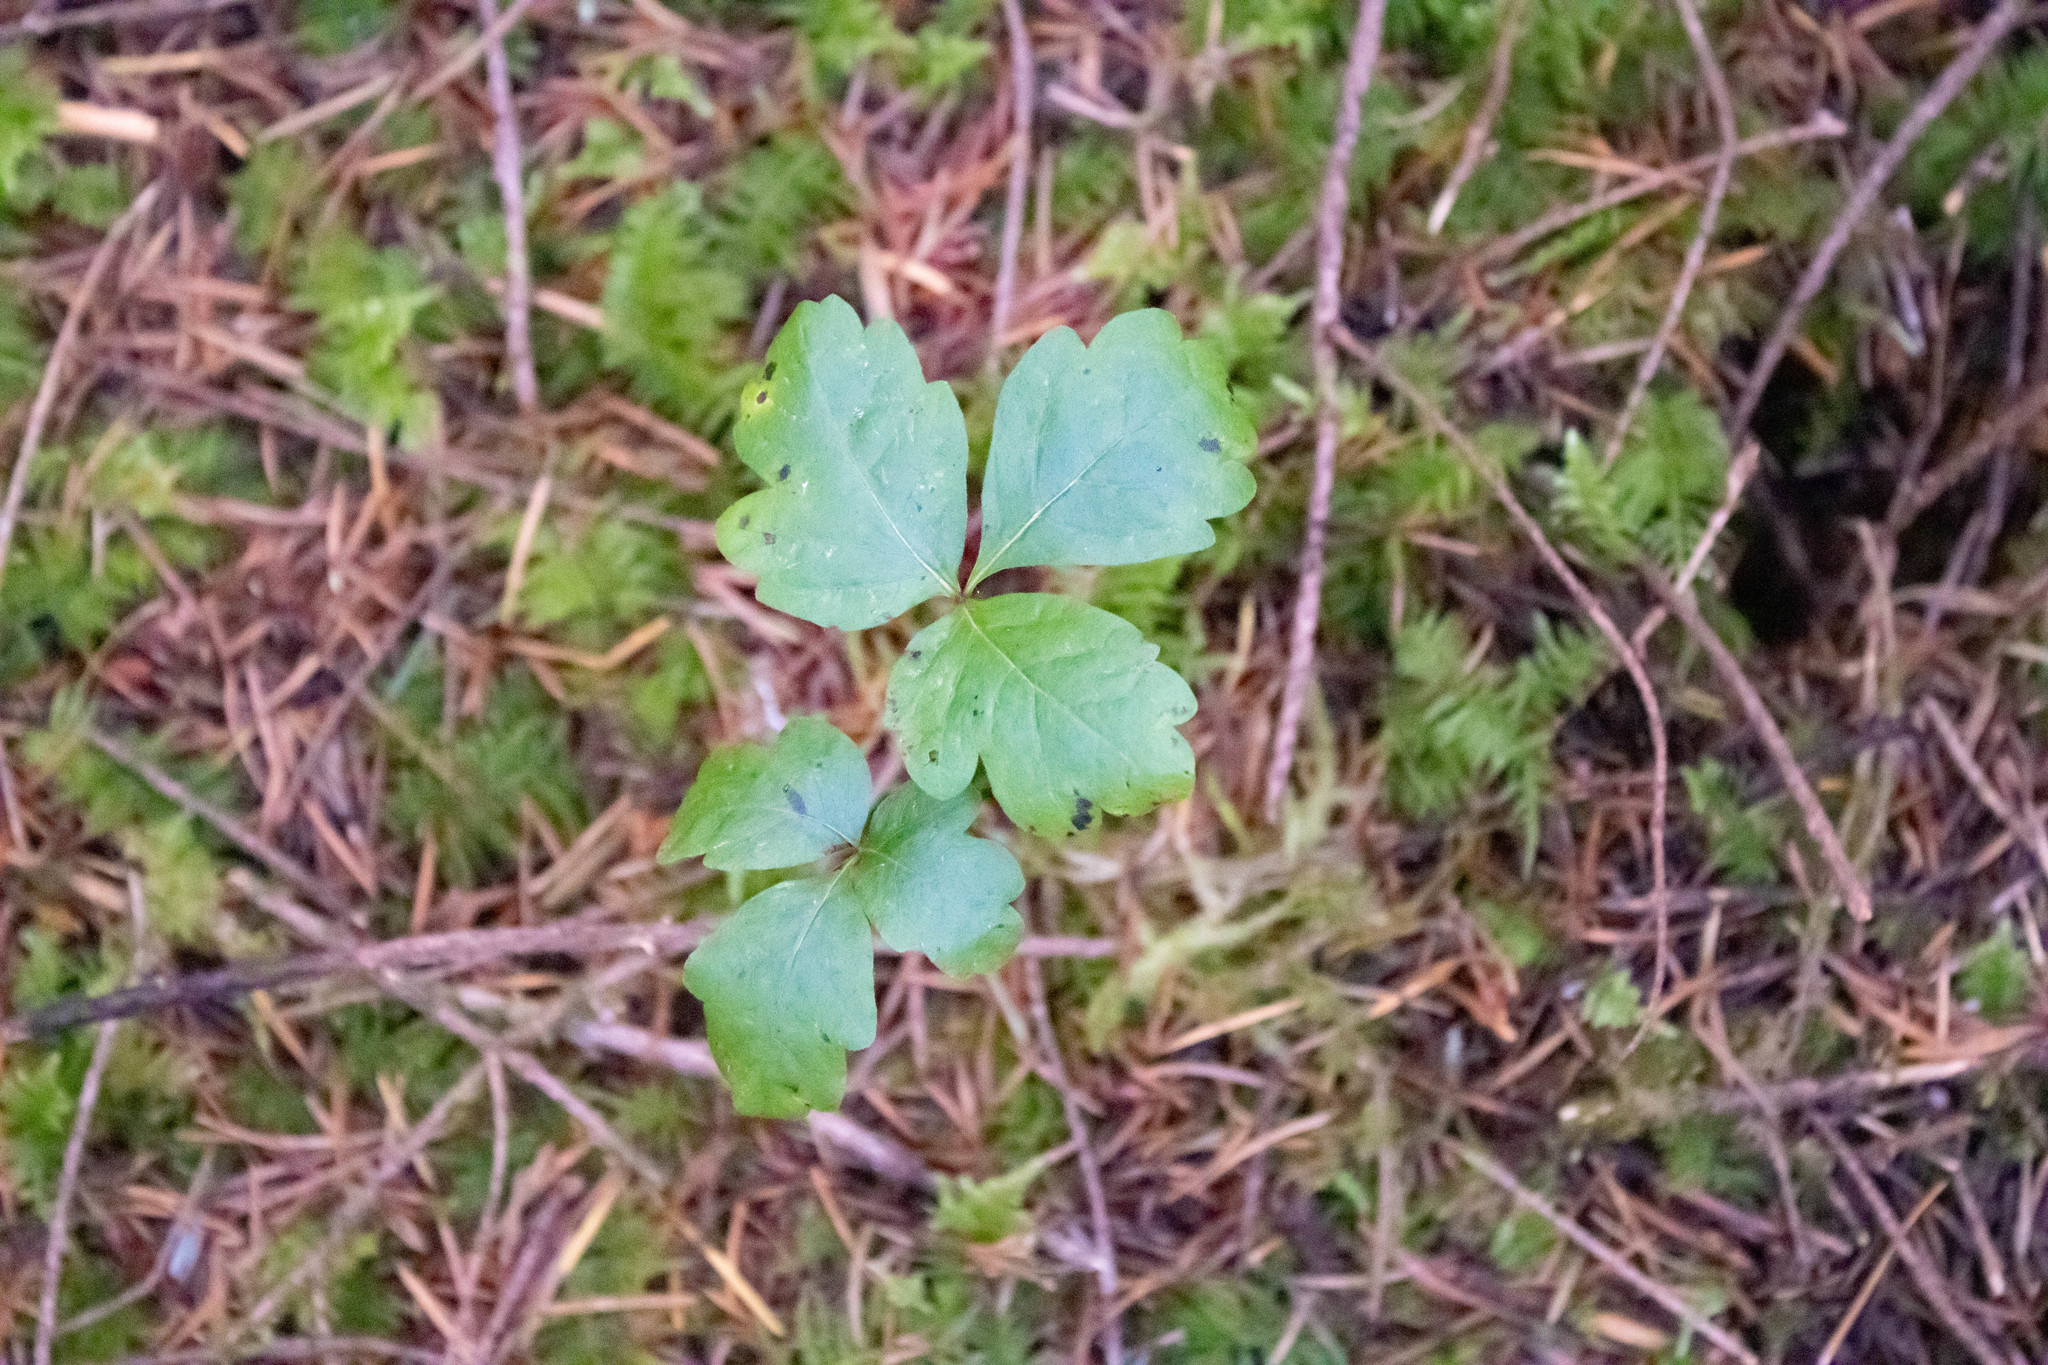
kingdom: Plantae
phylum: Tracheophyta
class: Magnoliopsida
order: Sapindales
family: Anacardiaceae
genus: Toxicodendron
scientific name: Toxicodendron diversilobum
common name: Pacific poison-oak
